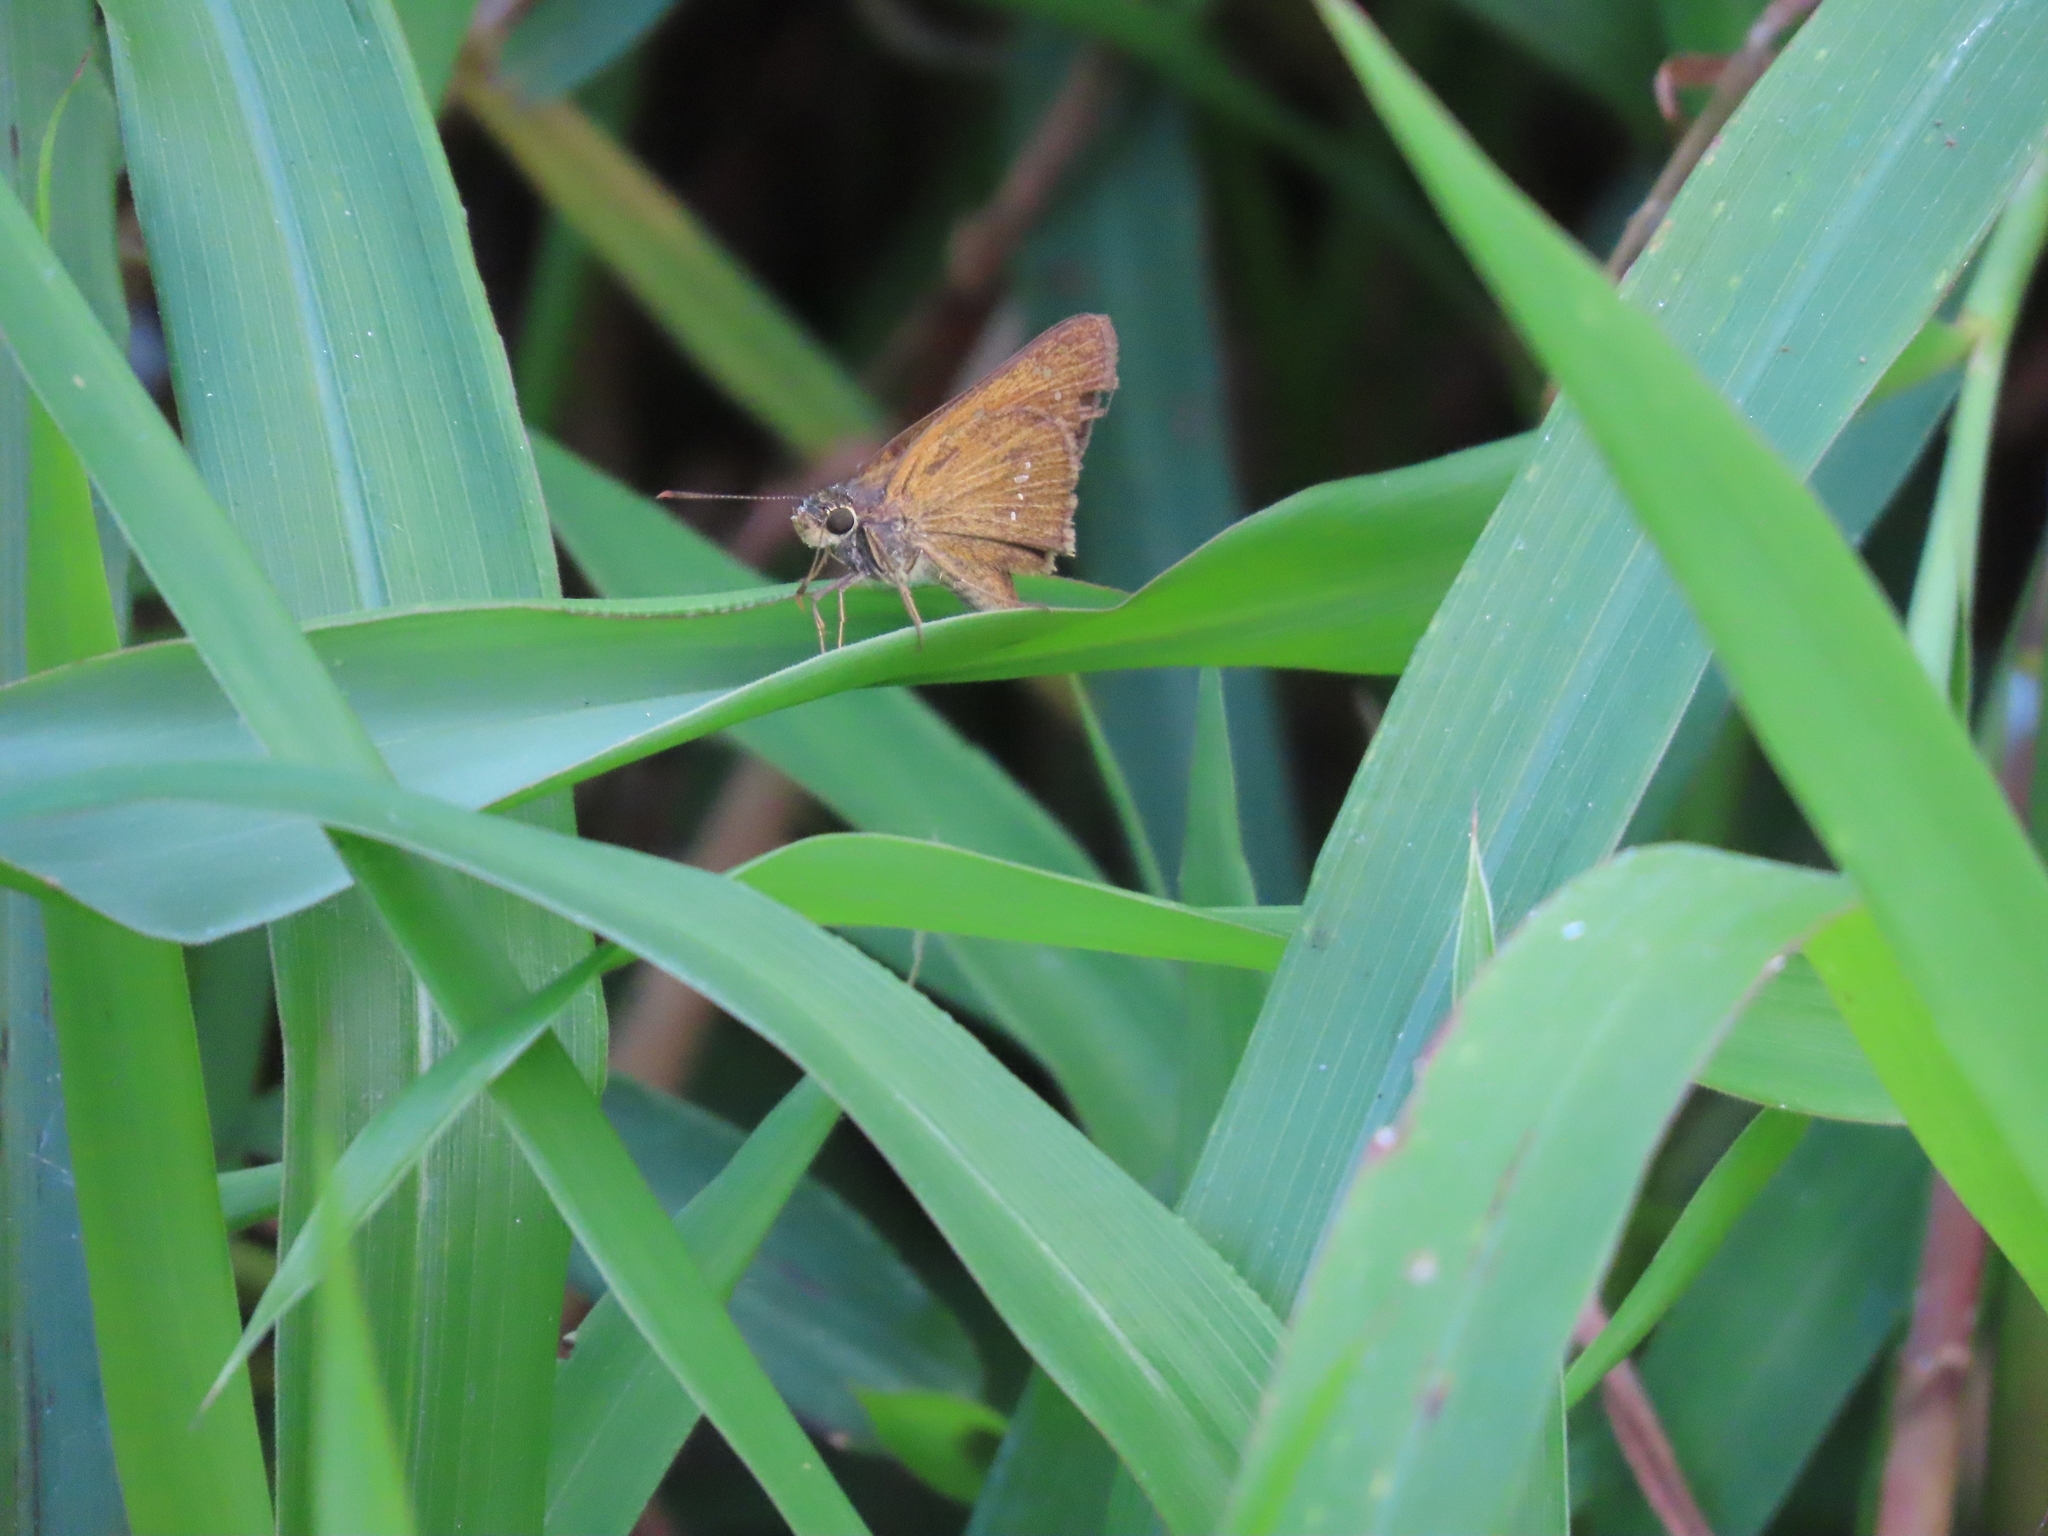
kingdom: Animalia
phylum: Arthropoda
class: Insecta
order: Lepidoptera
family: Hesperiidae
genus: Polytremis
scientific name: Polytremis lubricans
